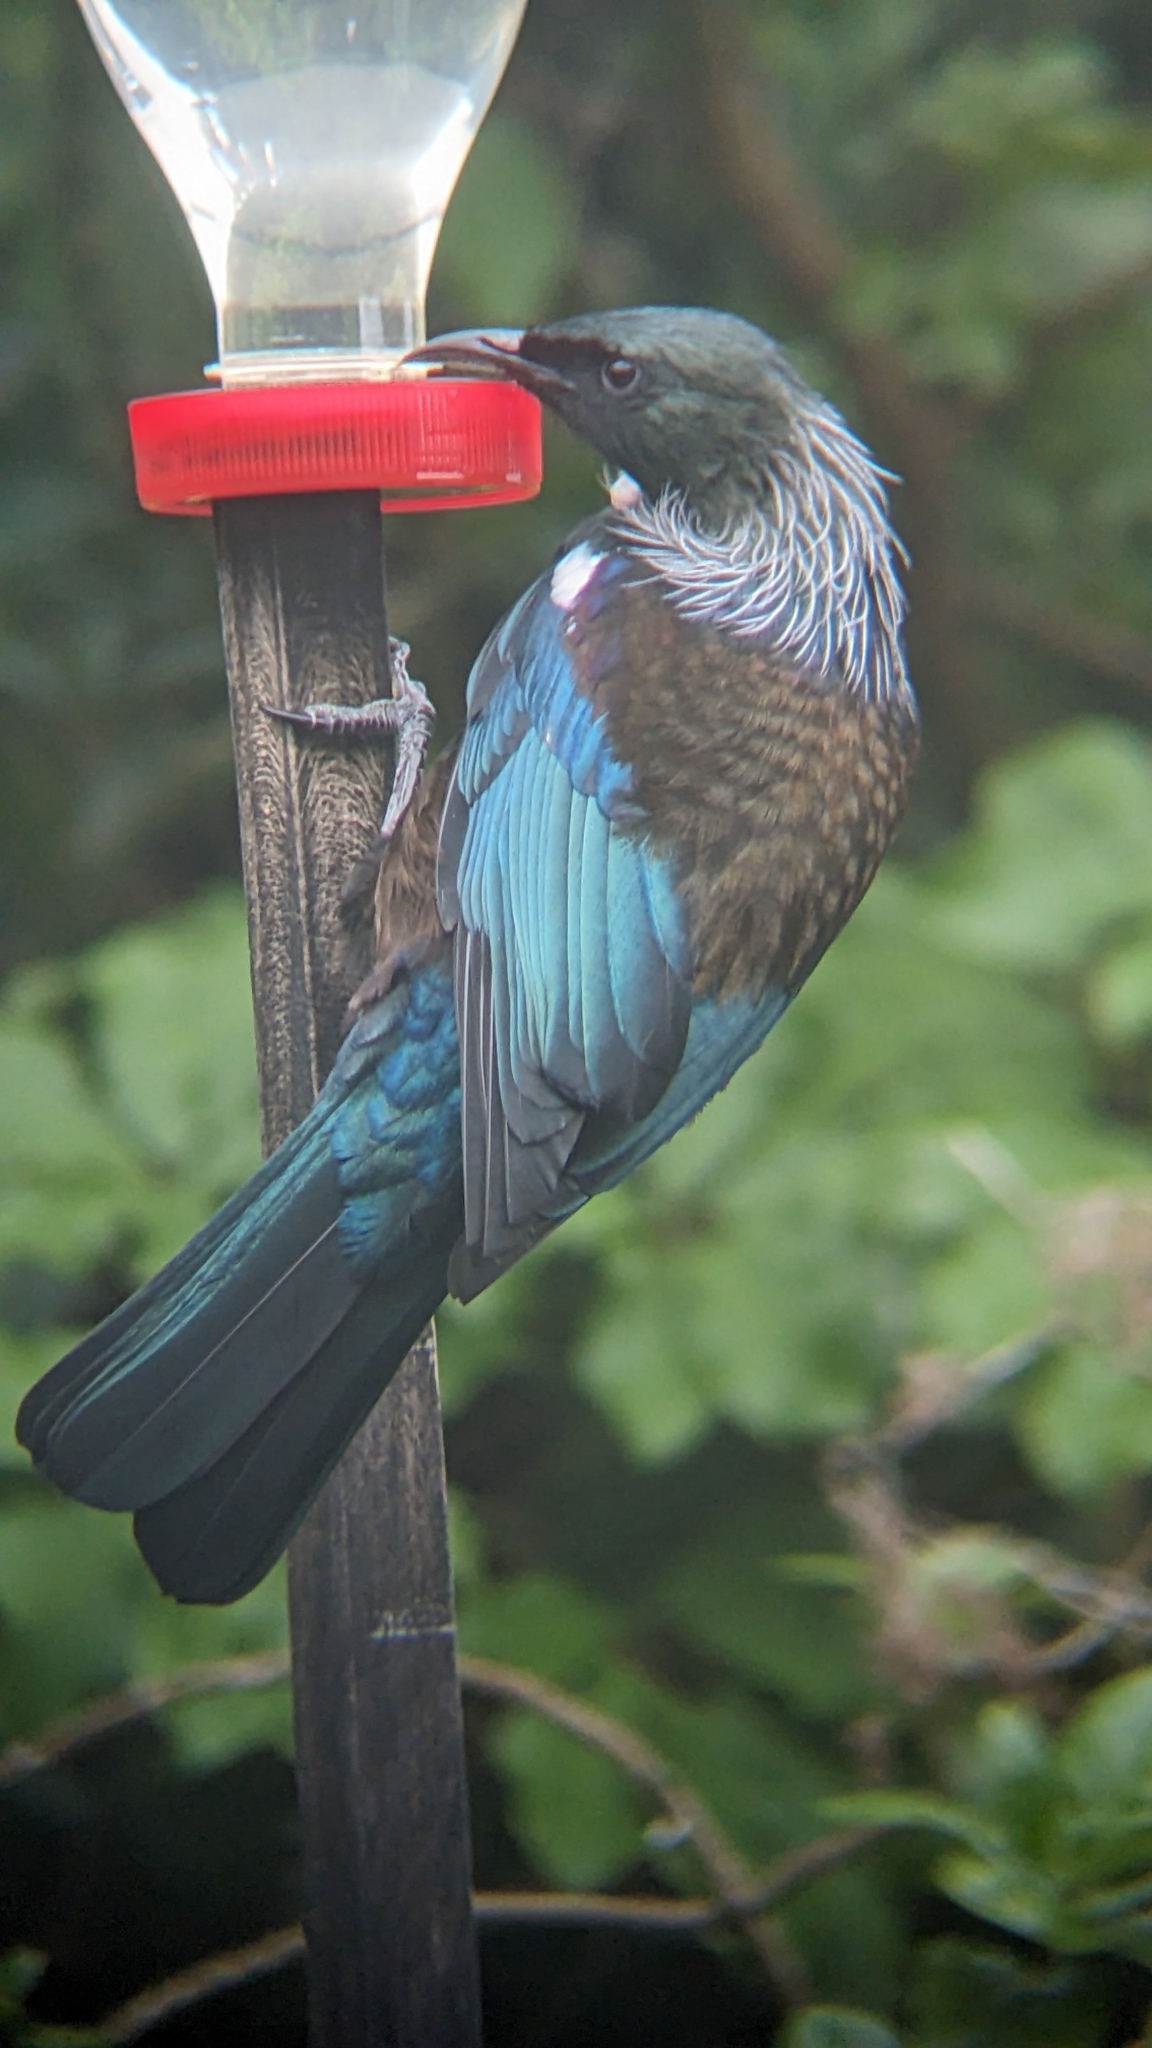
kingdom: Animalia
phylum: Chordata
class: Aves
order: Passeriformes
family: Meliphagidae
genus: Prosthemadera
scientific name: Prosthemadera novaeseelandiae
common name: Tui
